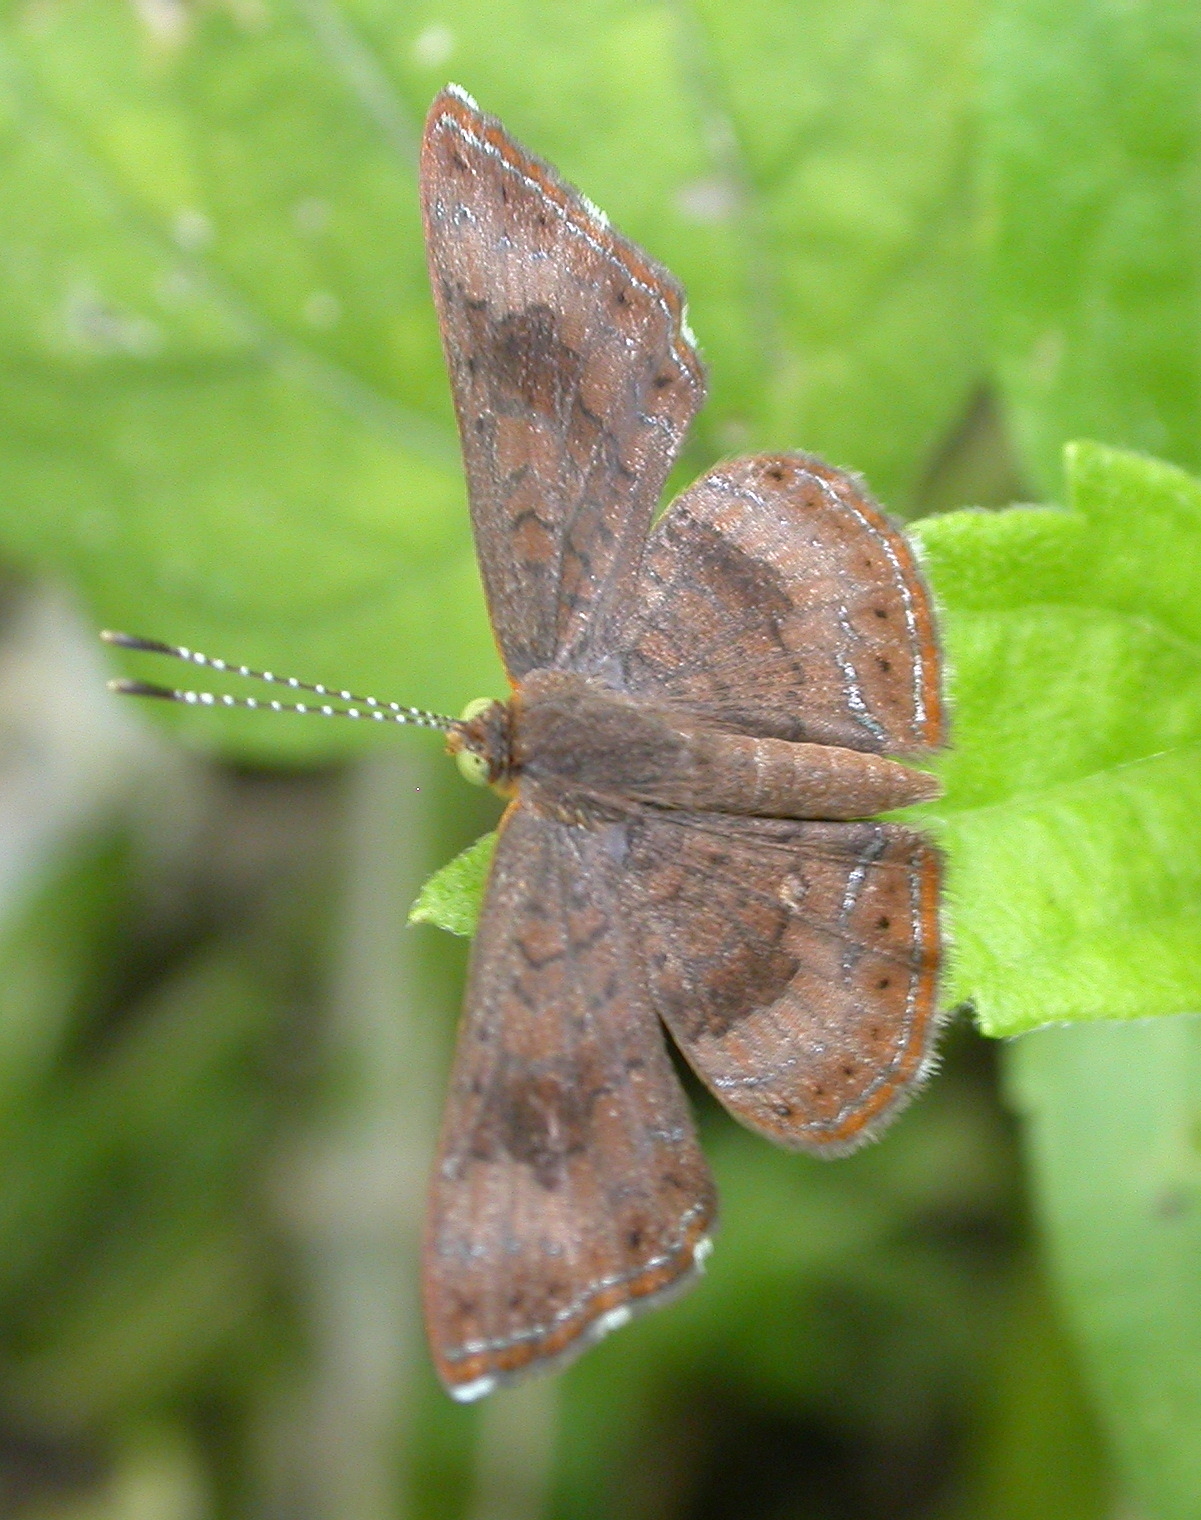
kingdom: Animalia
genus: Calephelis
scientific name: Calephelis nemesis
